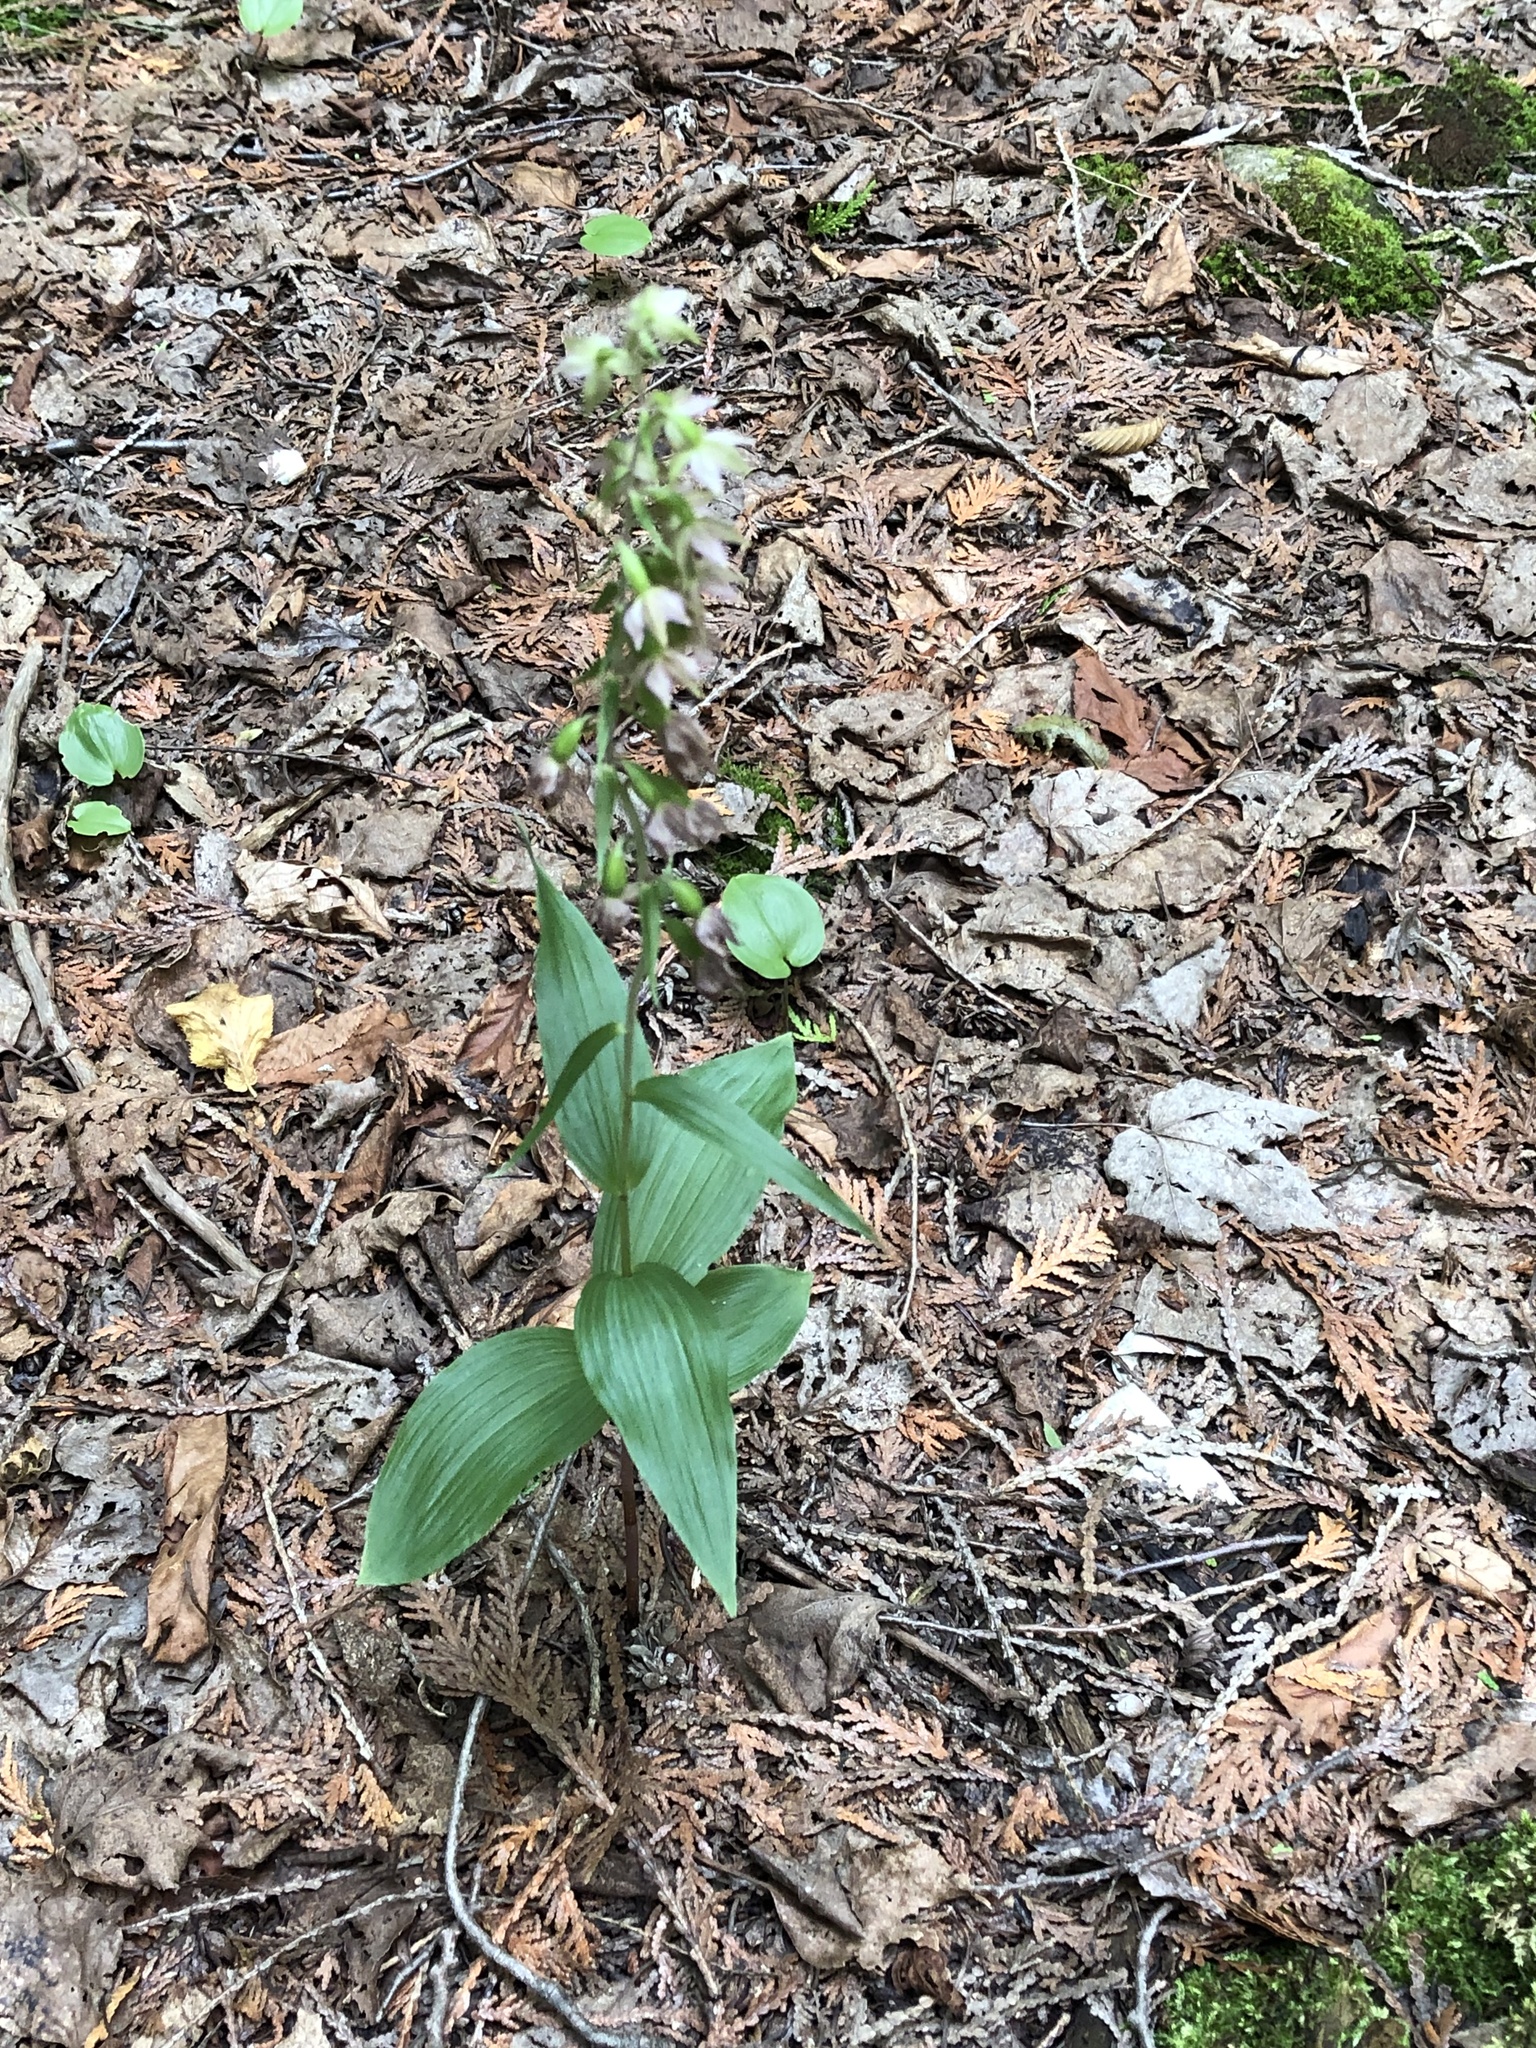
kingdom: Plantae
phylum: Tracheophyta
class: Liliopsida
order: Asparagales
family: Orchidaceae
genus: Epipactis
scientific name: Epipactis helleborine
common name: Broad-leaved helleborine
